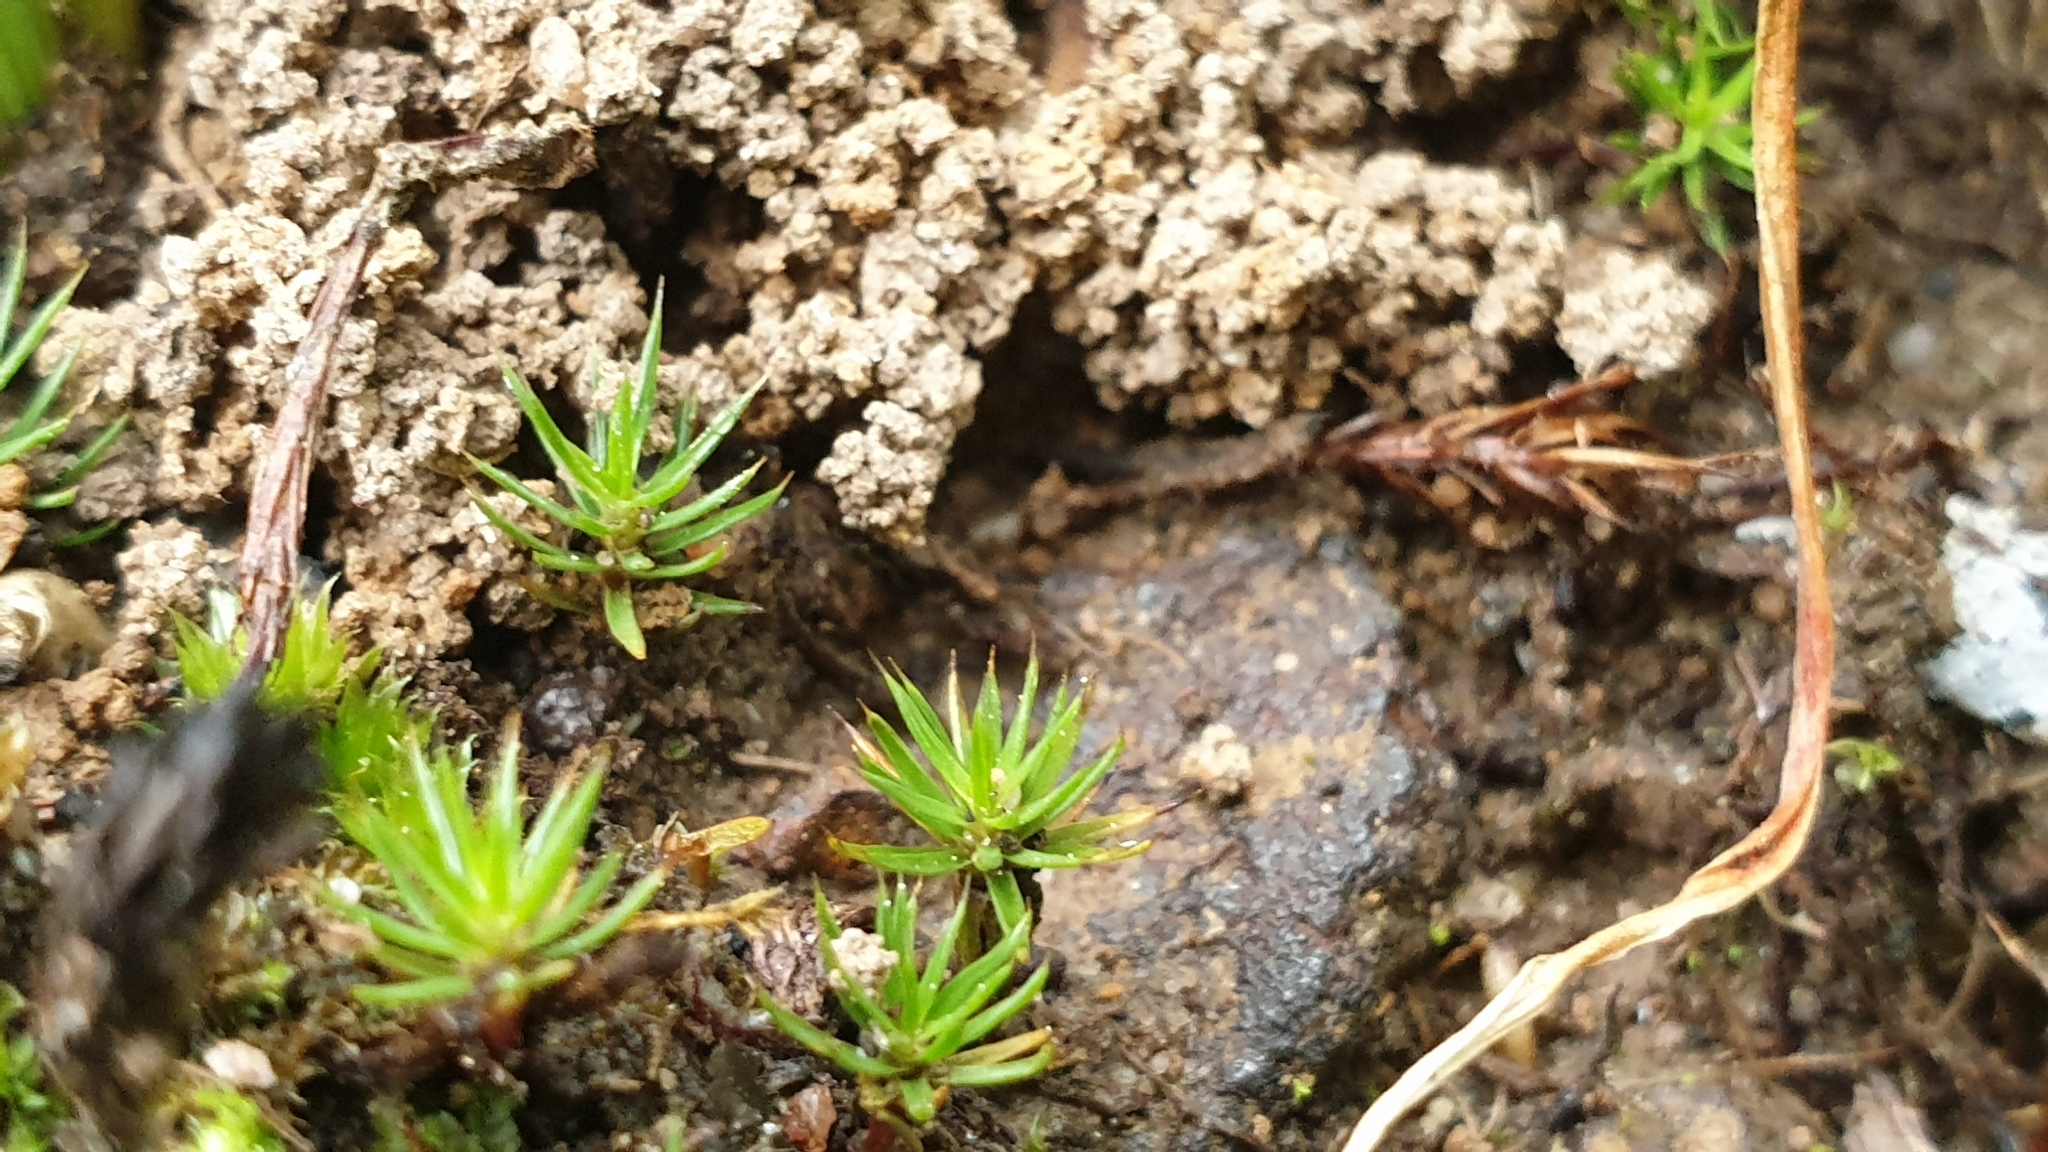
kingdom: Plantae
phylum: Bryophyta
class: Polytrichopsida
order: Polytrichales
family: Polytrichaceae
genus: Polytrichum
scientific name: Polytrichum juniperinum
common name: Juniper haircap moss
